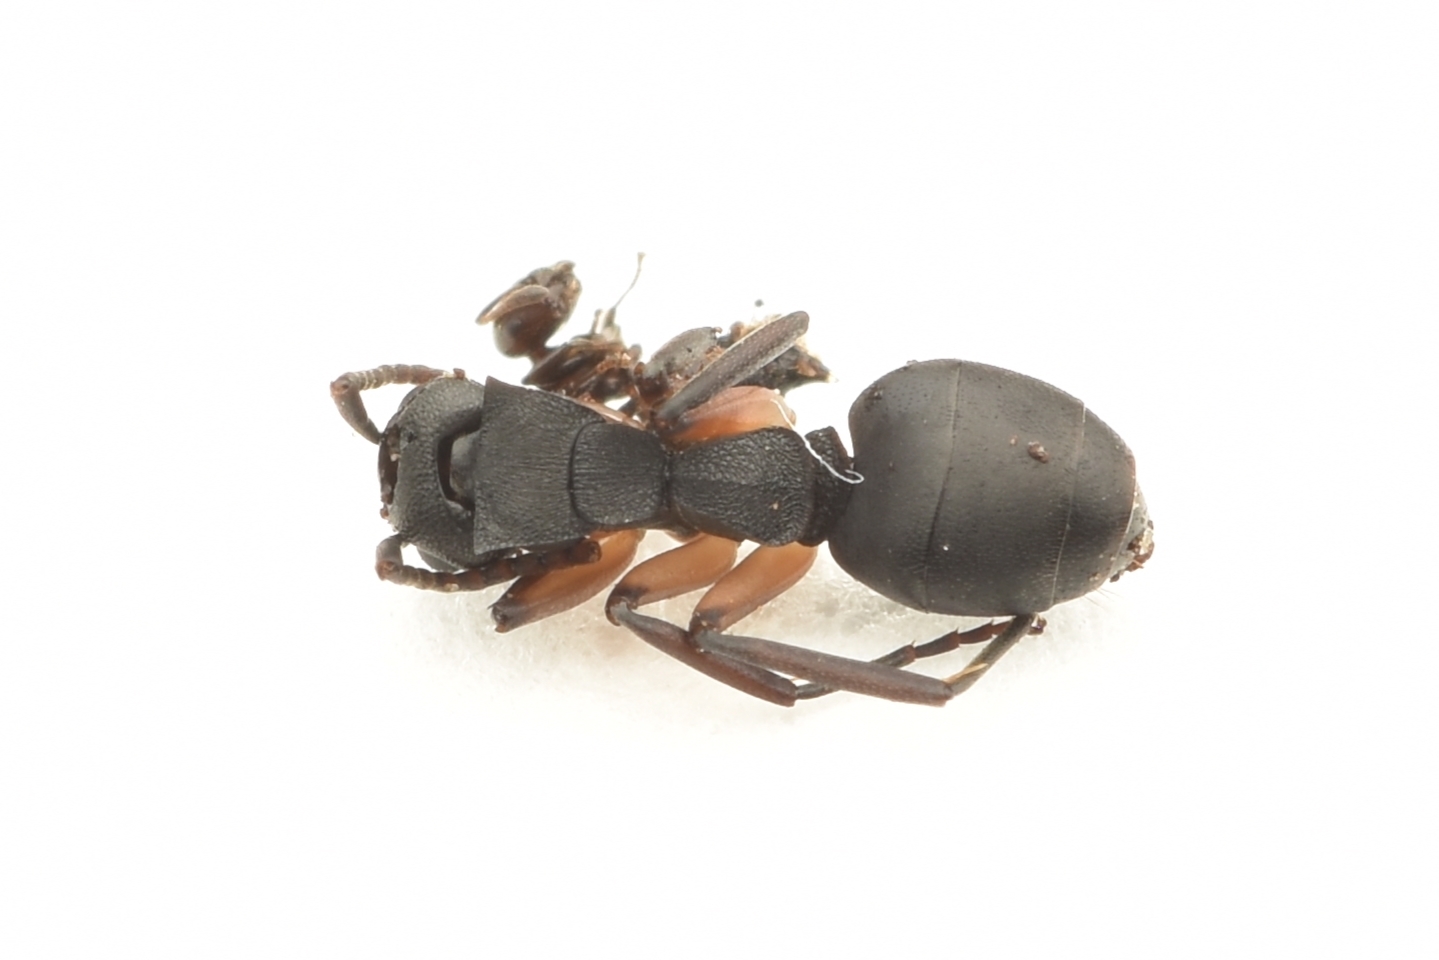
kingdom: Animalia
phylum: Arthropoda
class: Insecta
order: Hymenoptera
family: Formicidae
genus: Dolichoderus
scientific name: Dolichoderus laminatus
